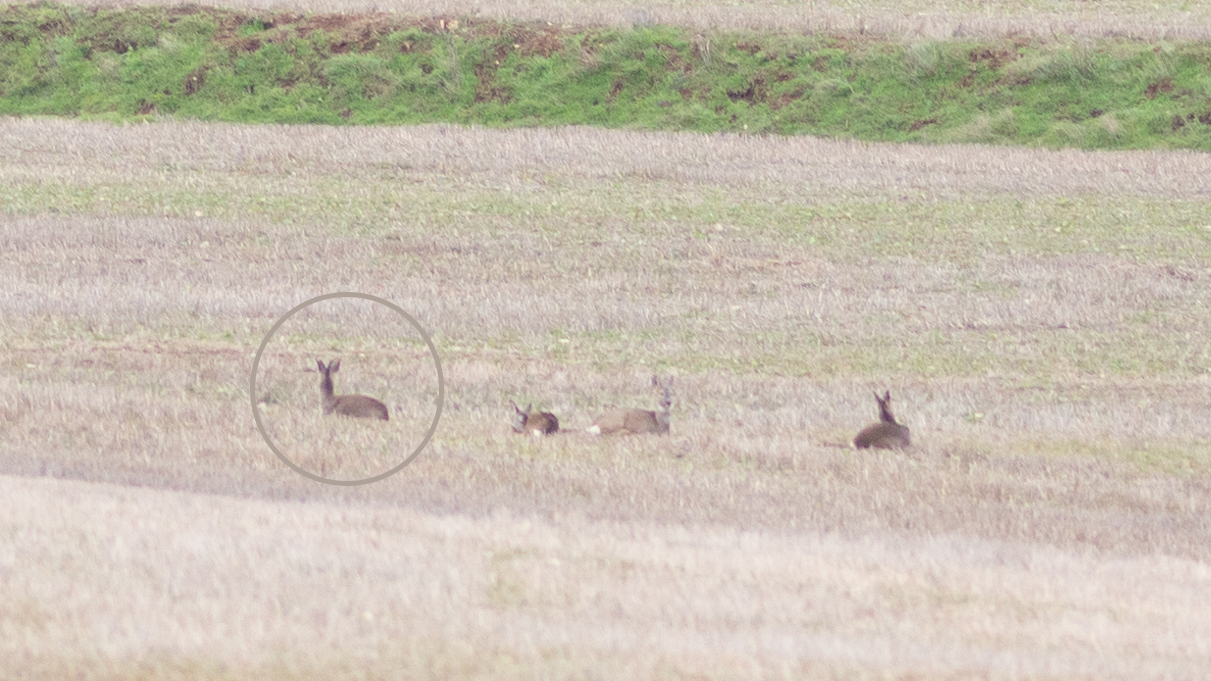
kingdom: Animalia
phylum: Chordata
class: Mammalia
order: Artiodactyla
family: Cervidae
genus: Capreolus
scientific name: Capreolus capreolus
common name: Western roe deer
